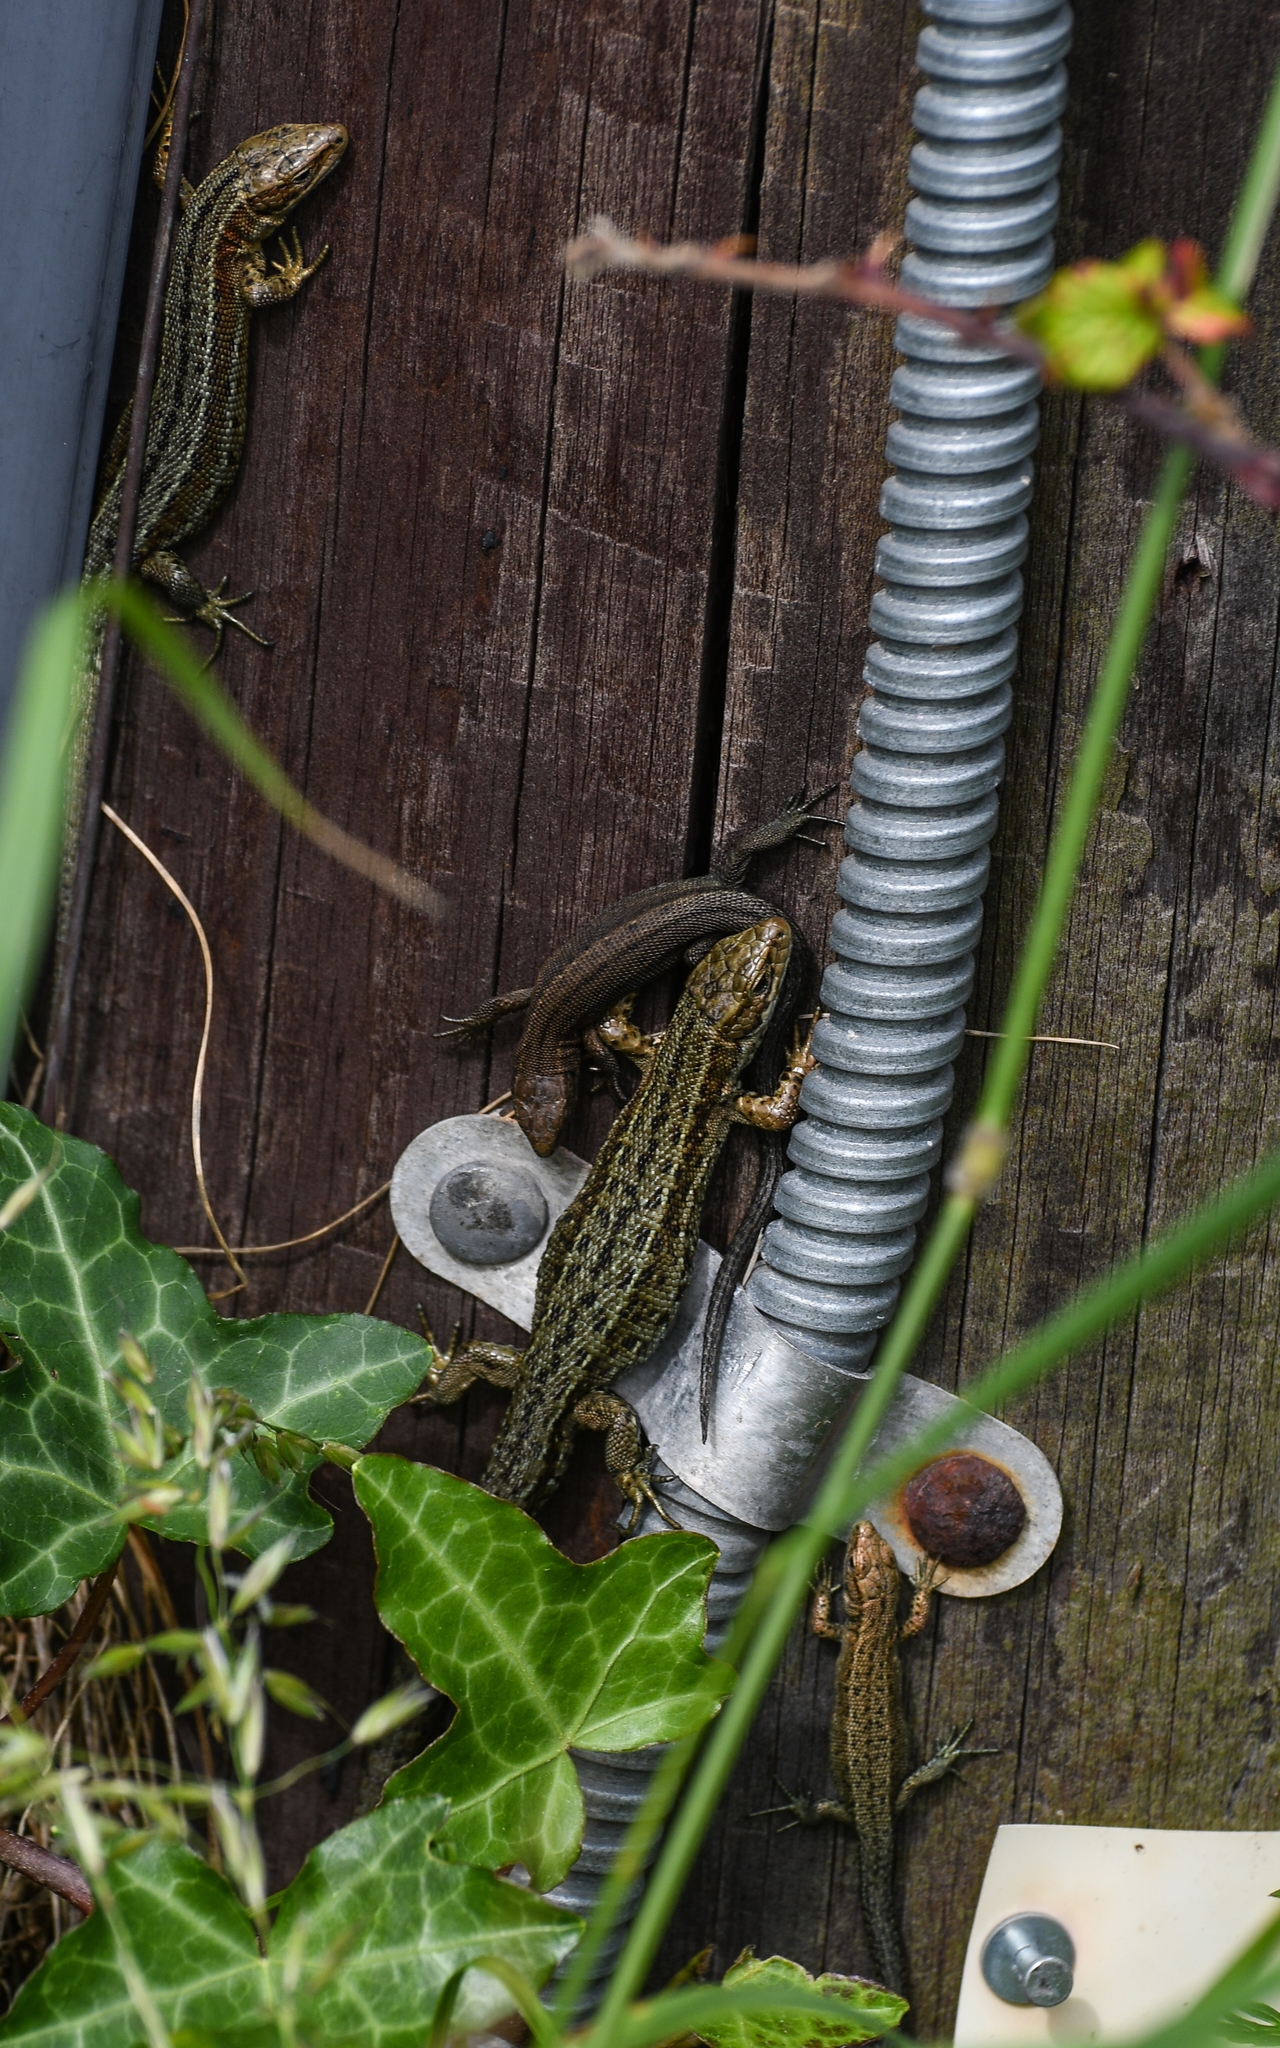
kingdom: Animalia
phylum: Chordata
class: Squamata
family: Lacertidae
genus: Zootoca
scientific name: Zootoca vivipara
